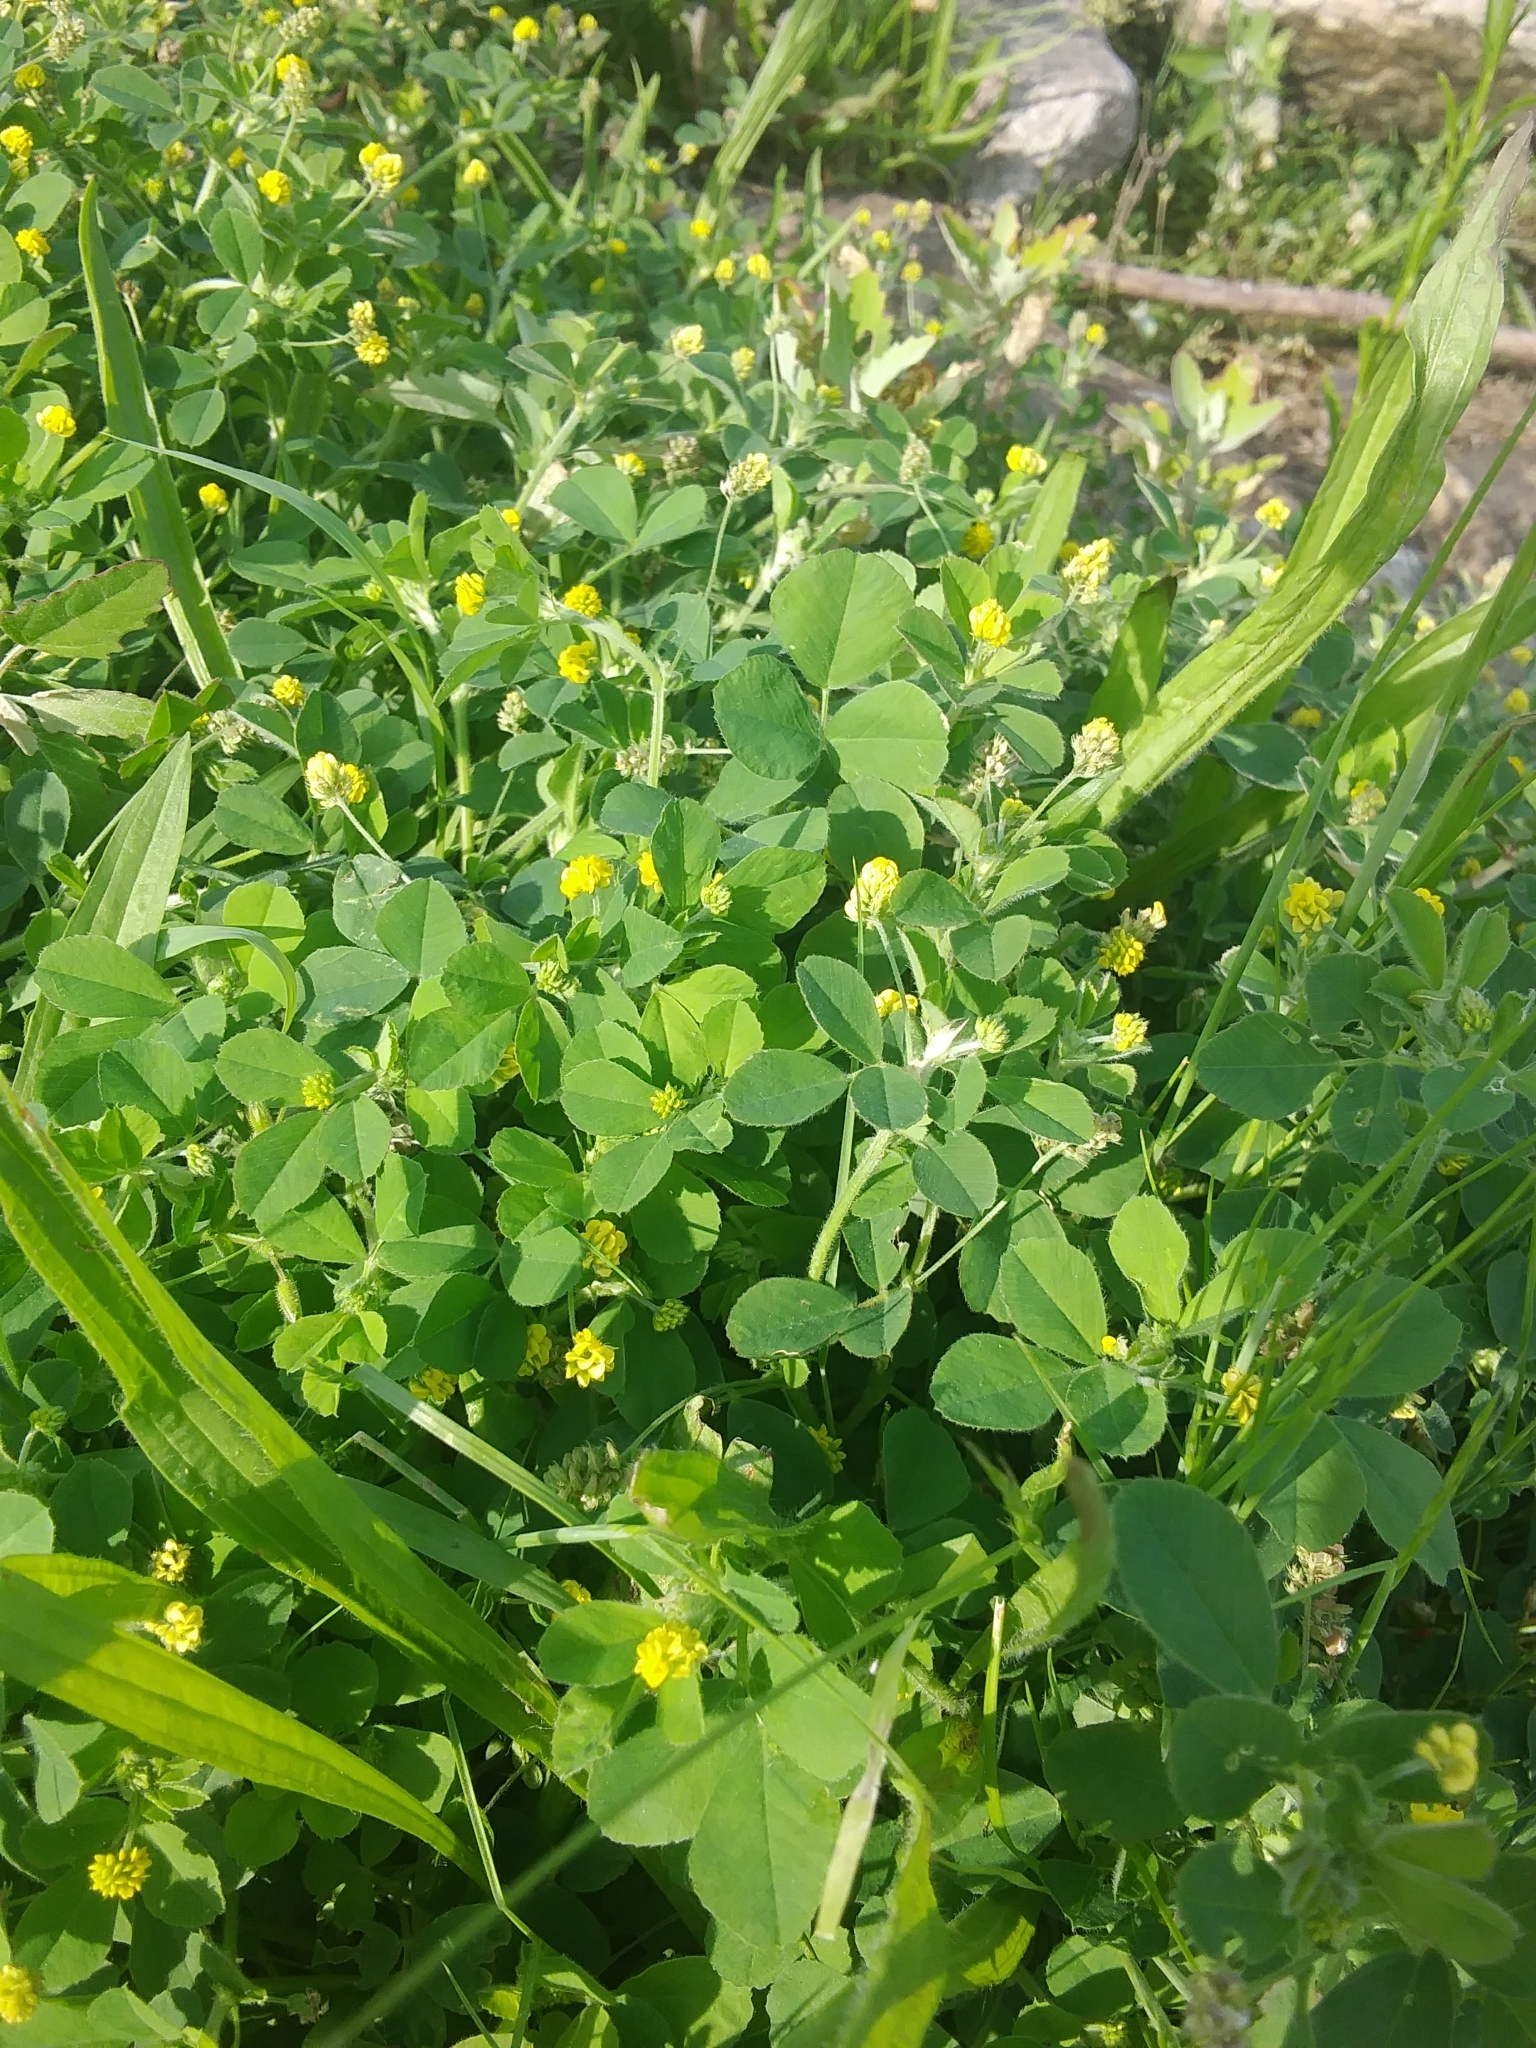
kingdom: Plantae
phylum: Tracheophyta
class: Magnoliopsida
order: Fabales
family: Fabaceae
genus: Medicago
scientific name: Medicago lupulina
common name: Black medick
